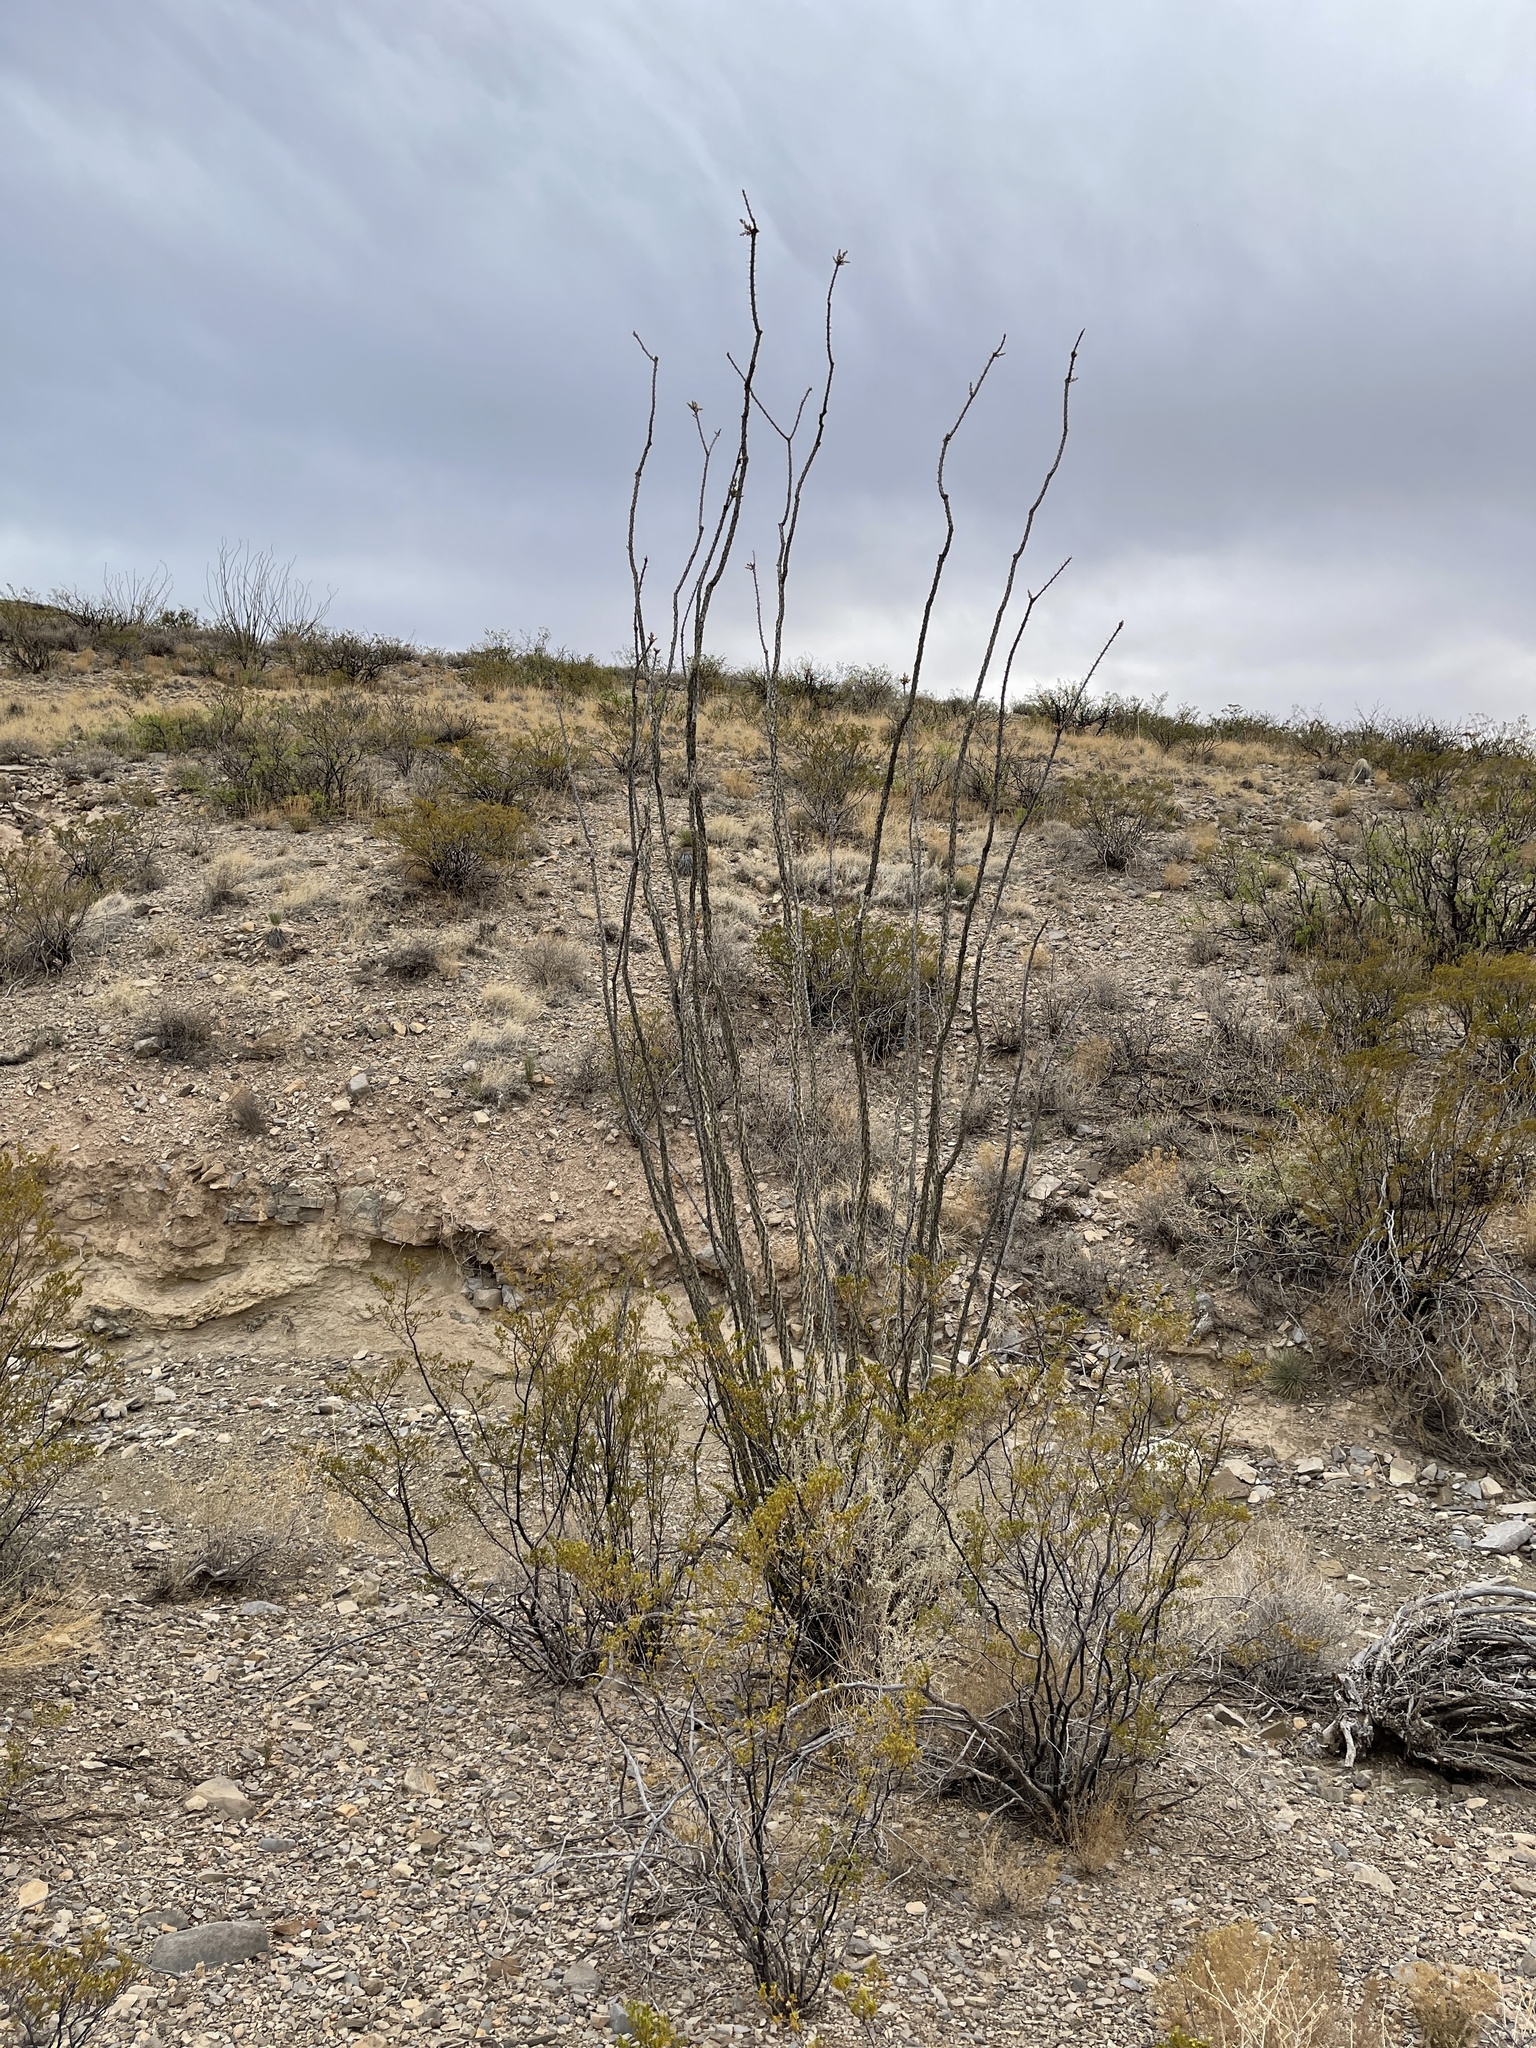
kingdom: Plantae
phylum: Tracheophyta
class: Magnoliopsida
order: Ericales
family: Fouquieriaceae
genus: Fouquieria
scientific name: Fouquieria splendens
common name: Vine-cactus
